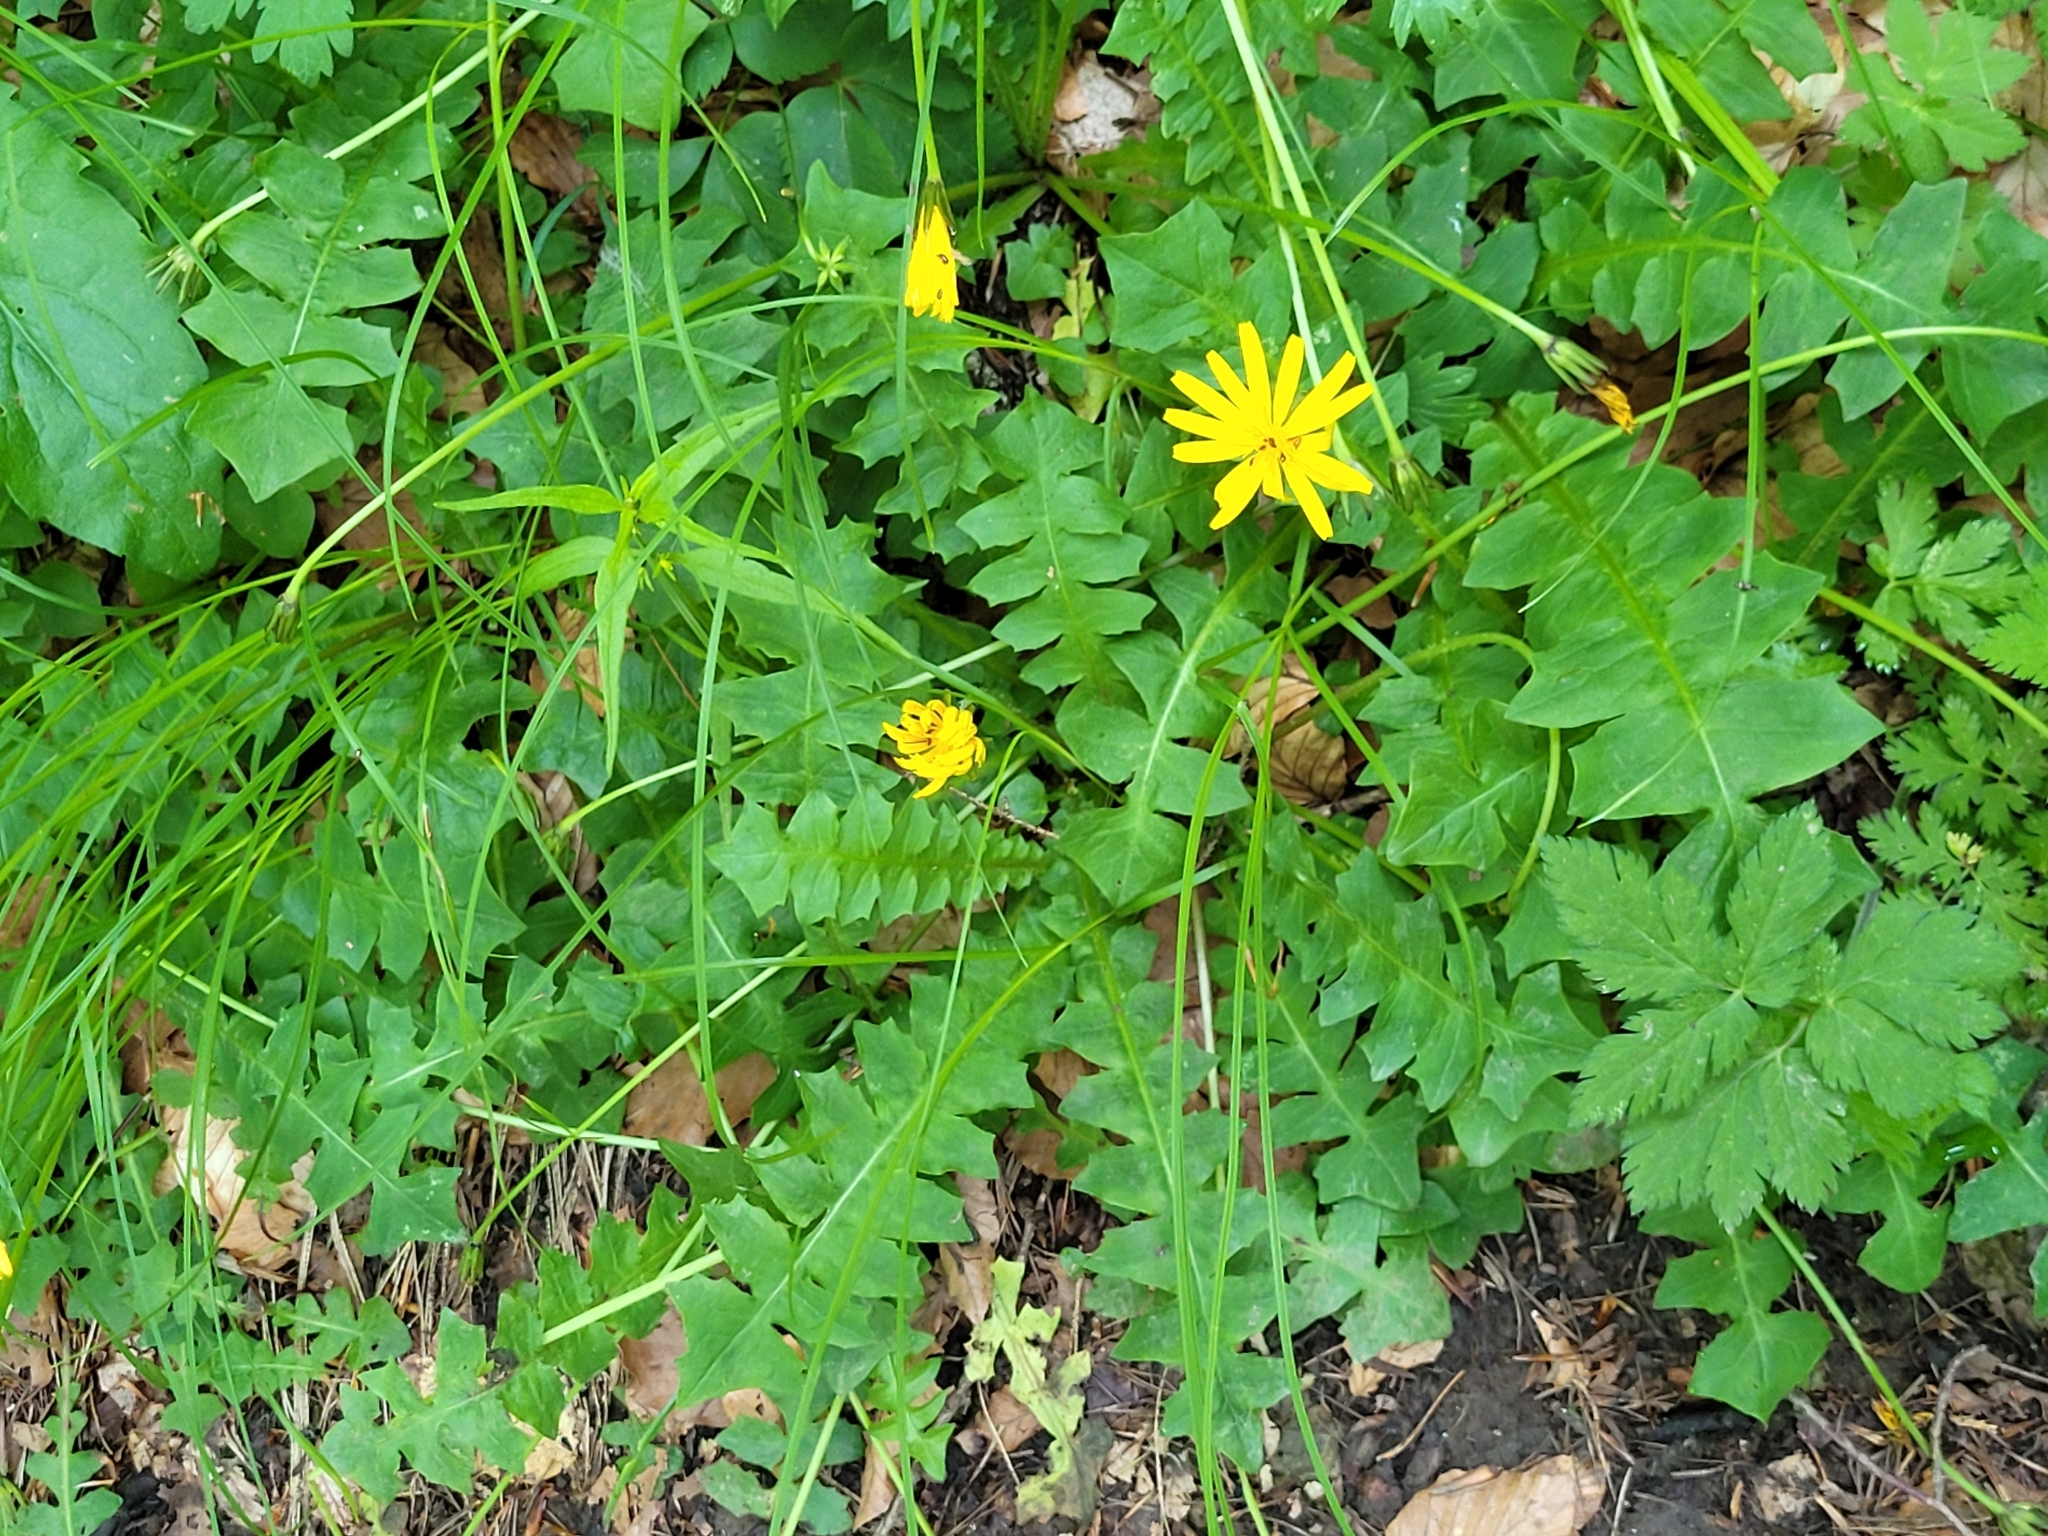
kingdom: Plantae
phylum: Tracheophyta
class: Magnoliopsida
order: Asterales
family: Asteraceae
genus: Aposeris
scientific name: Aposeris foetida
